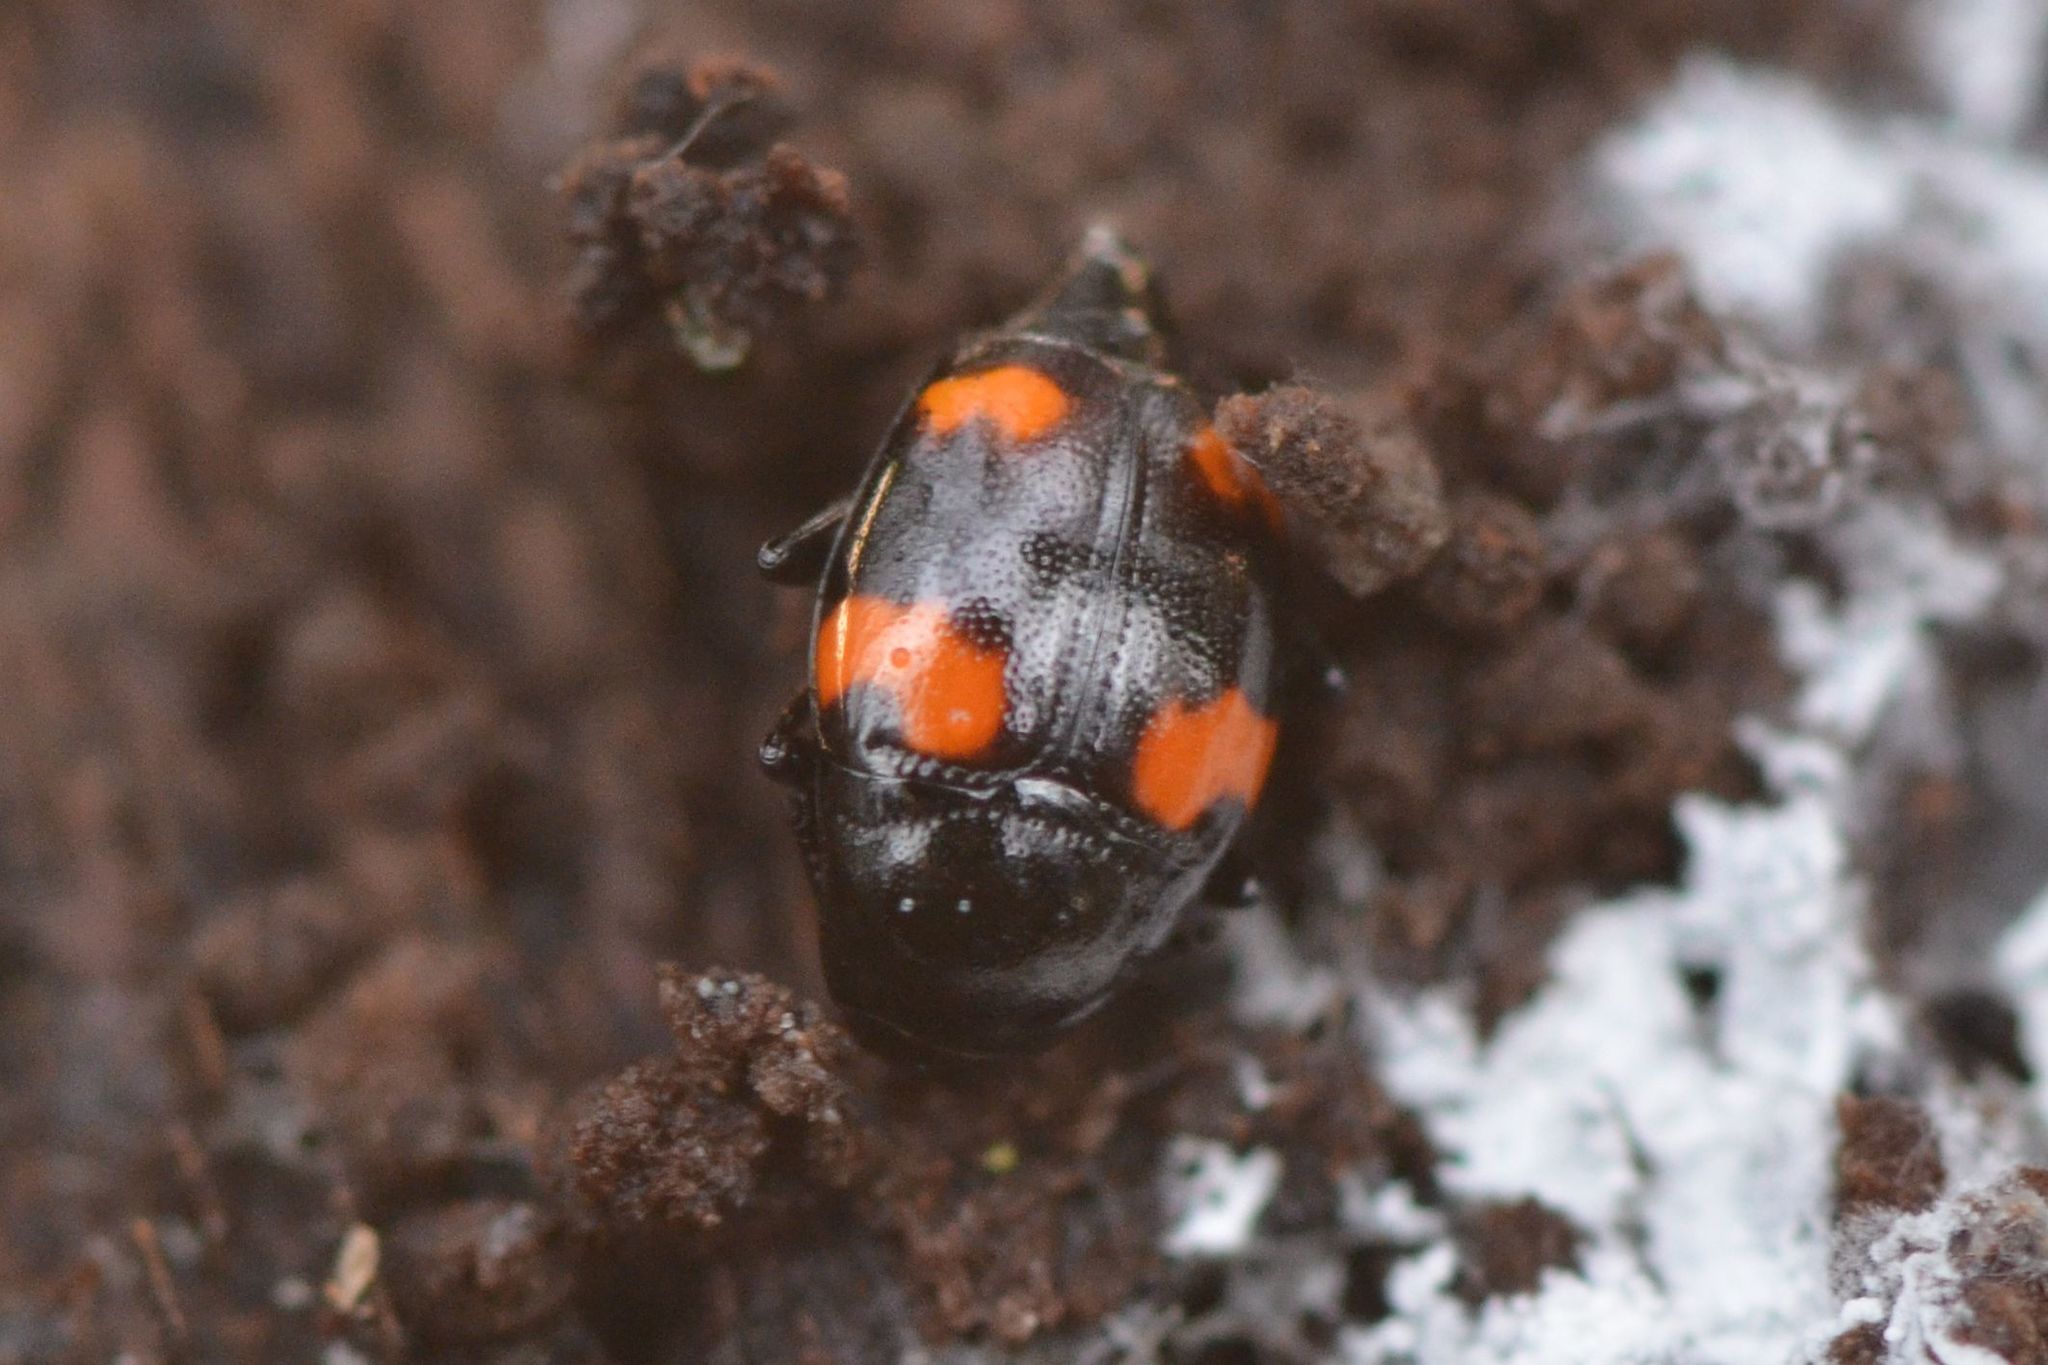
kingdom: Animalia
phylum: Arthropoda
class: Insecta
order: Coleoptera
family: Staphylinidae
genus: Scaphidium
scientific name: Scaphidium quadrimaculatum
